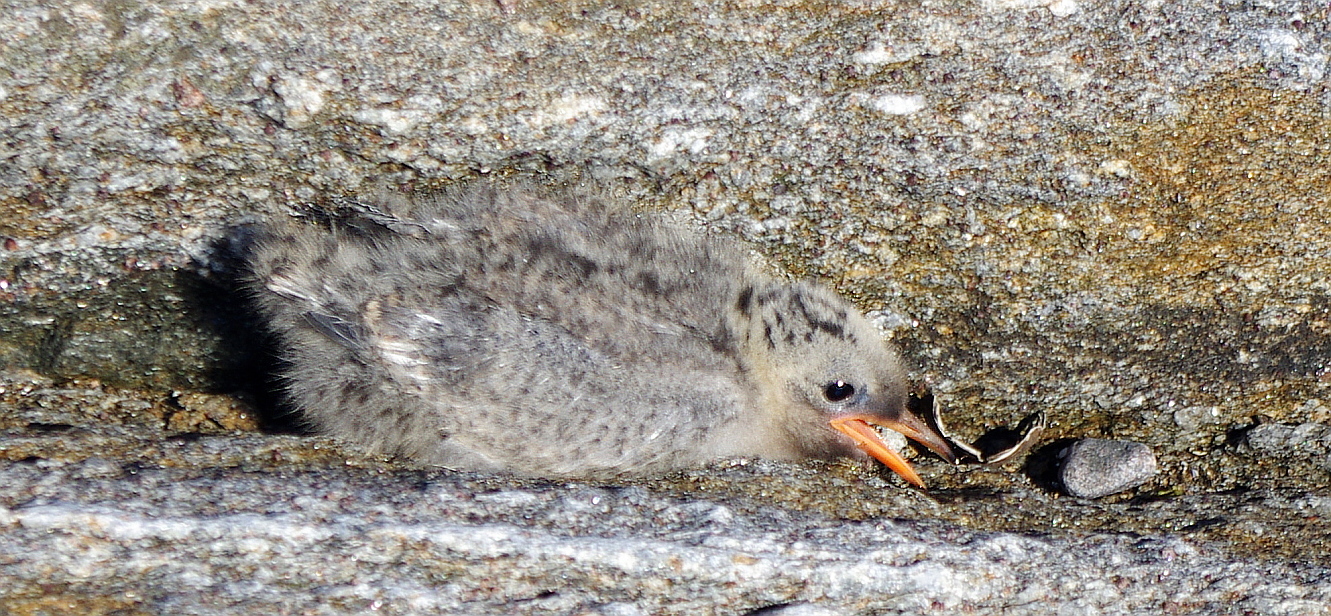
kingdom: Animalia
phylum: Chordata
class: Aves
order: Charadriiformes
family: Laridae
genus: Sterna
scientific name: Sterna paradisaea
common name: Arctic tern
